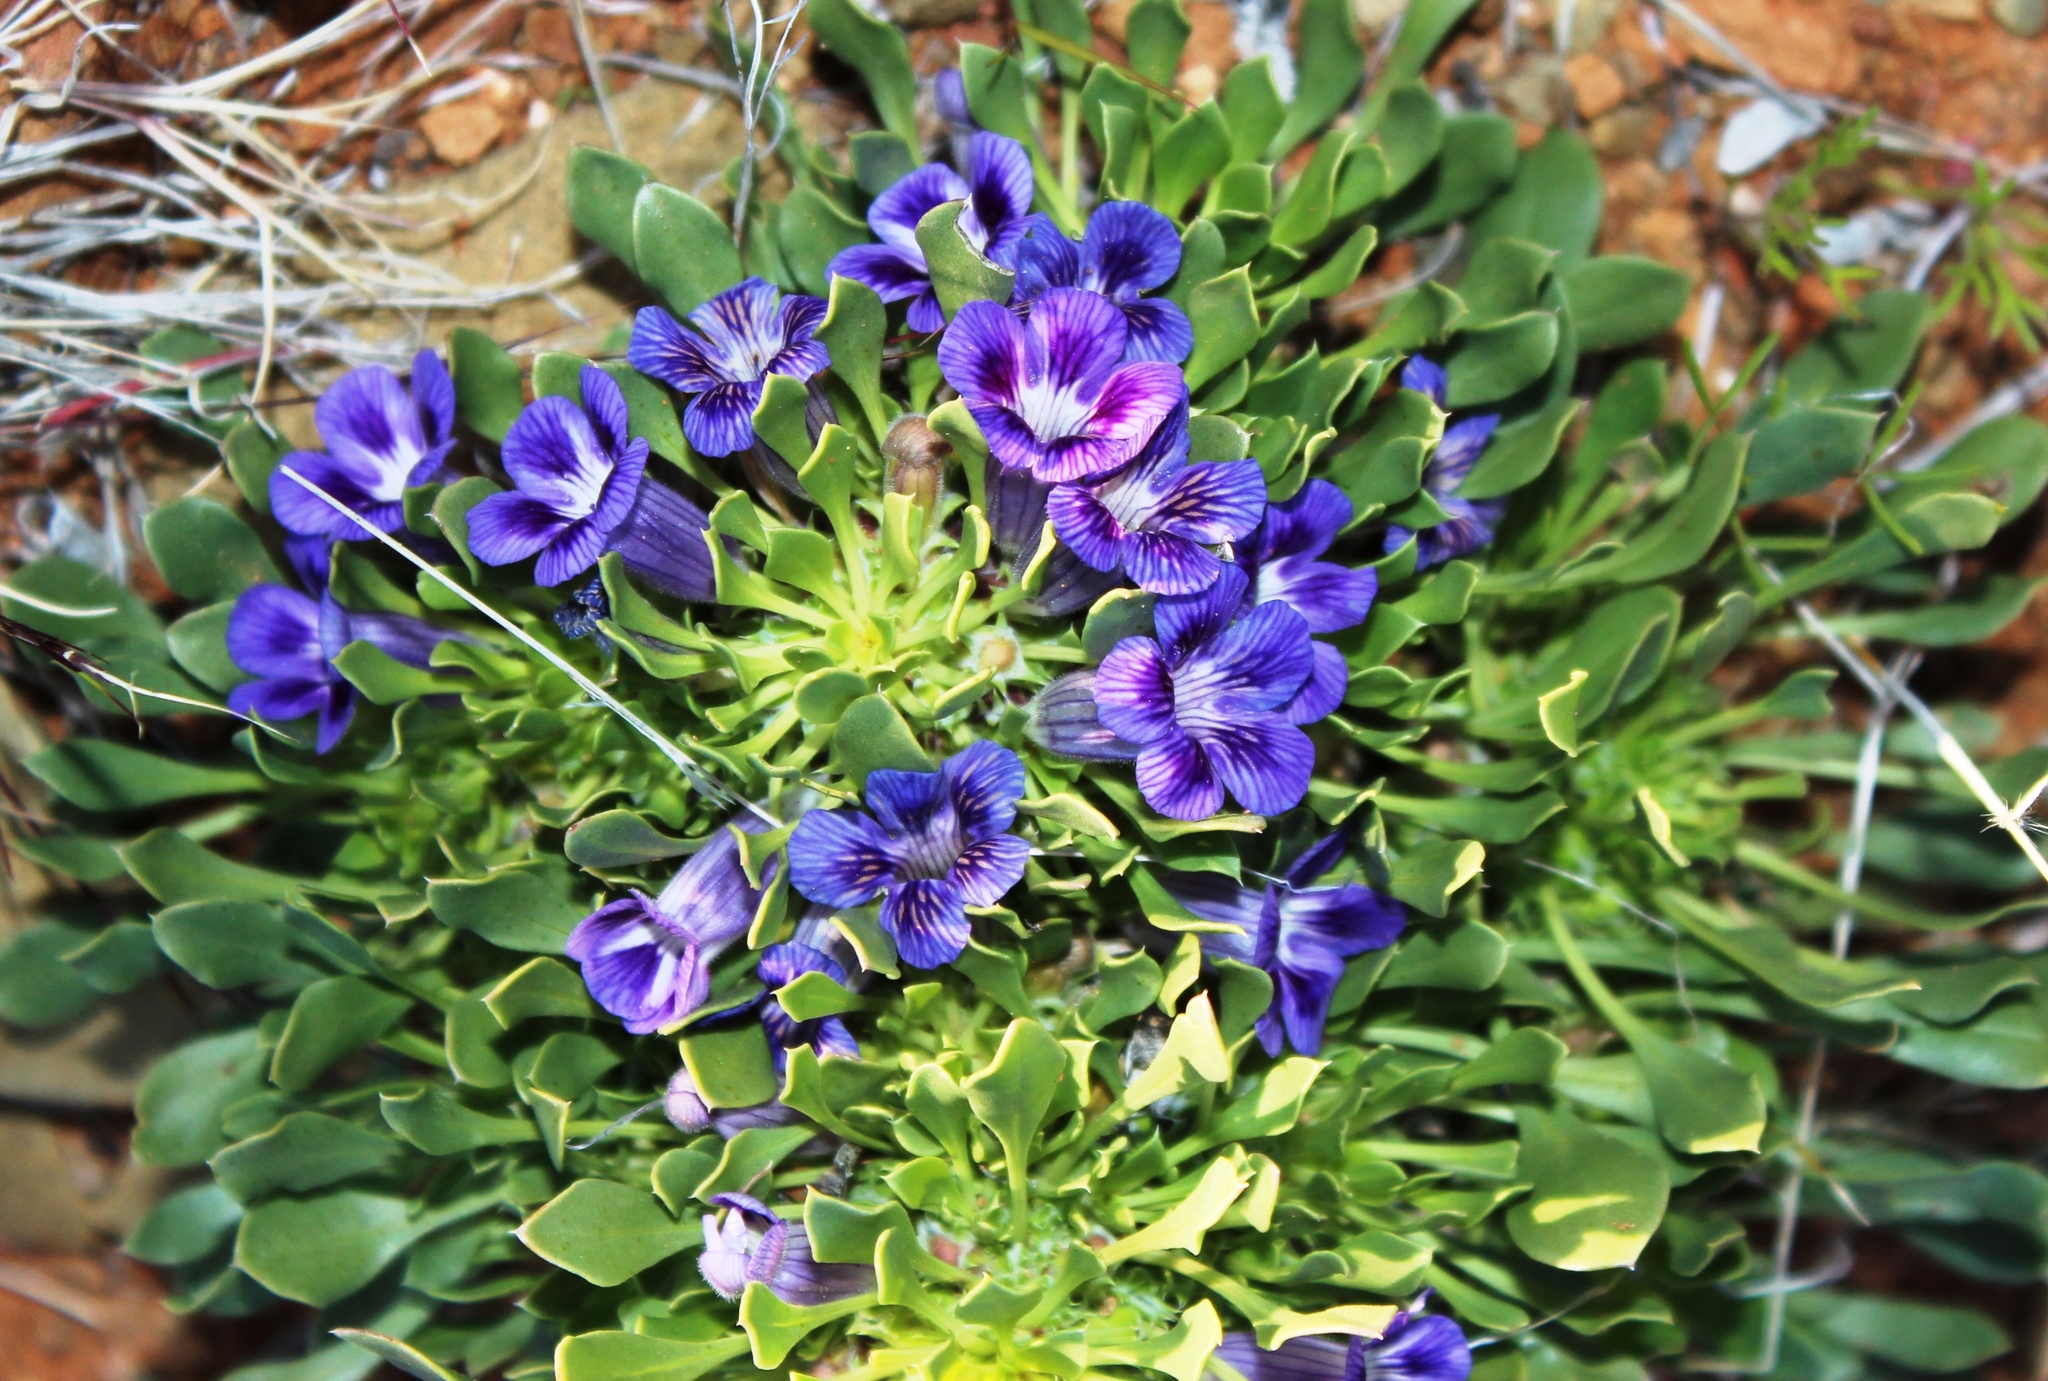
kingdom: Plantae
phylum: Tracheophyta
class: Magnoliopsida
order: Lamiales
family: Scrophulariaceae
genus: Aptosimum
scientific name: Aptosimum indivisum
